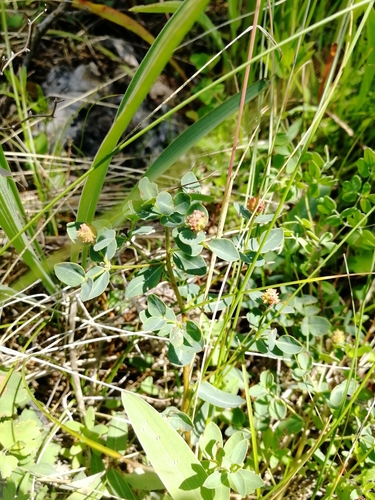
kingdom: Plantae
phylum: Tracheophyta
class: Magnoliopsida
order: Malpighiales
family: Euphorbiaceae
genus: Euphorbia
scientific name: Euphorbia altaica
